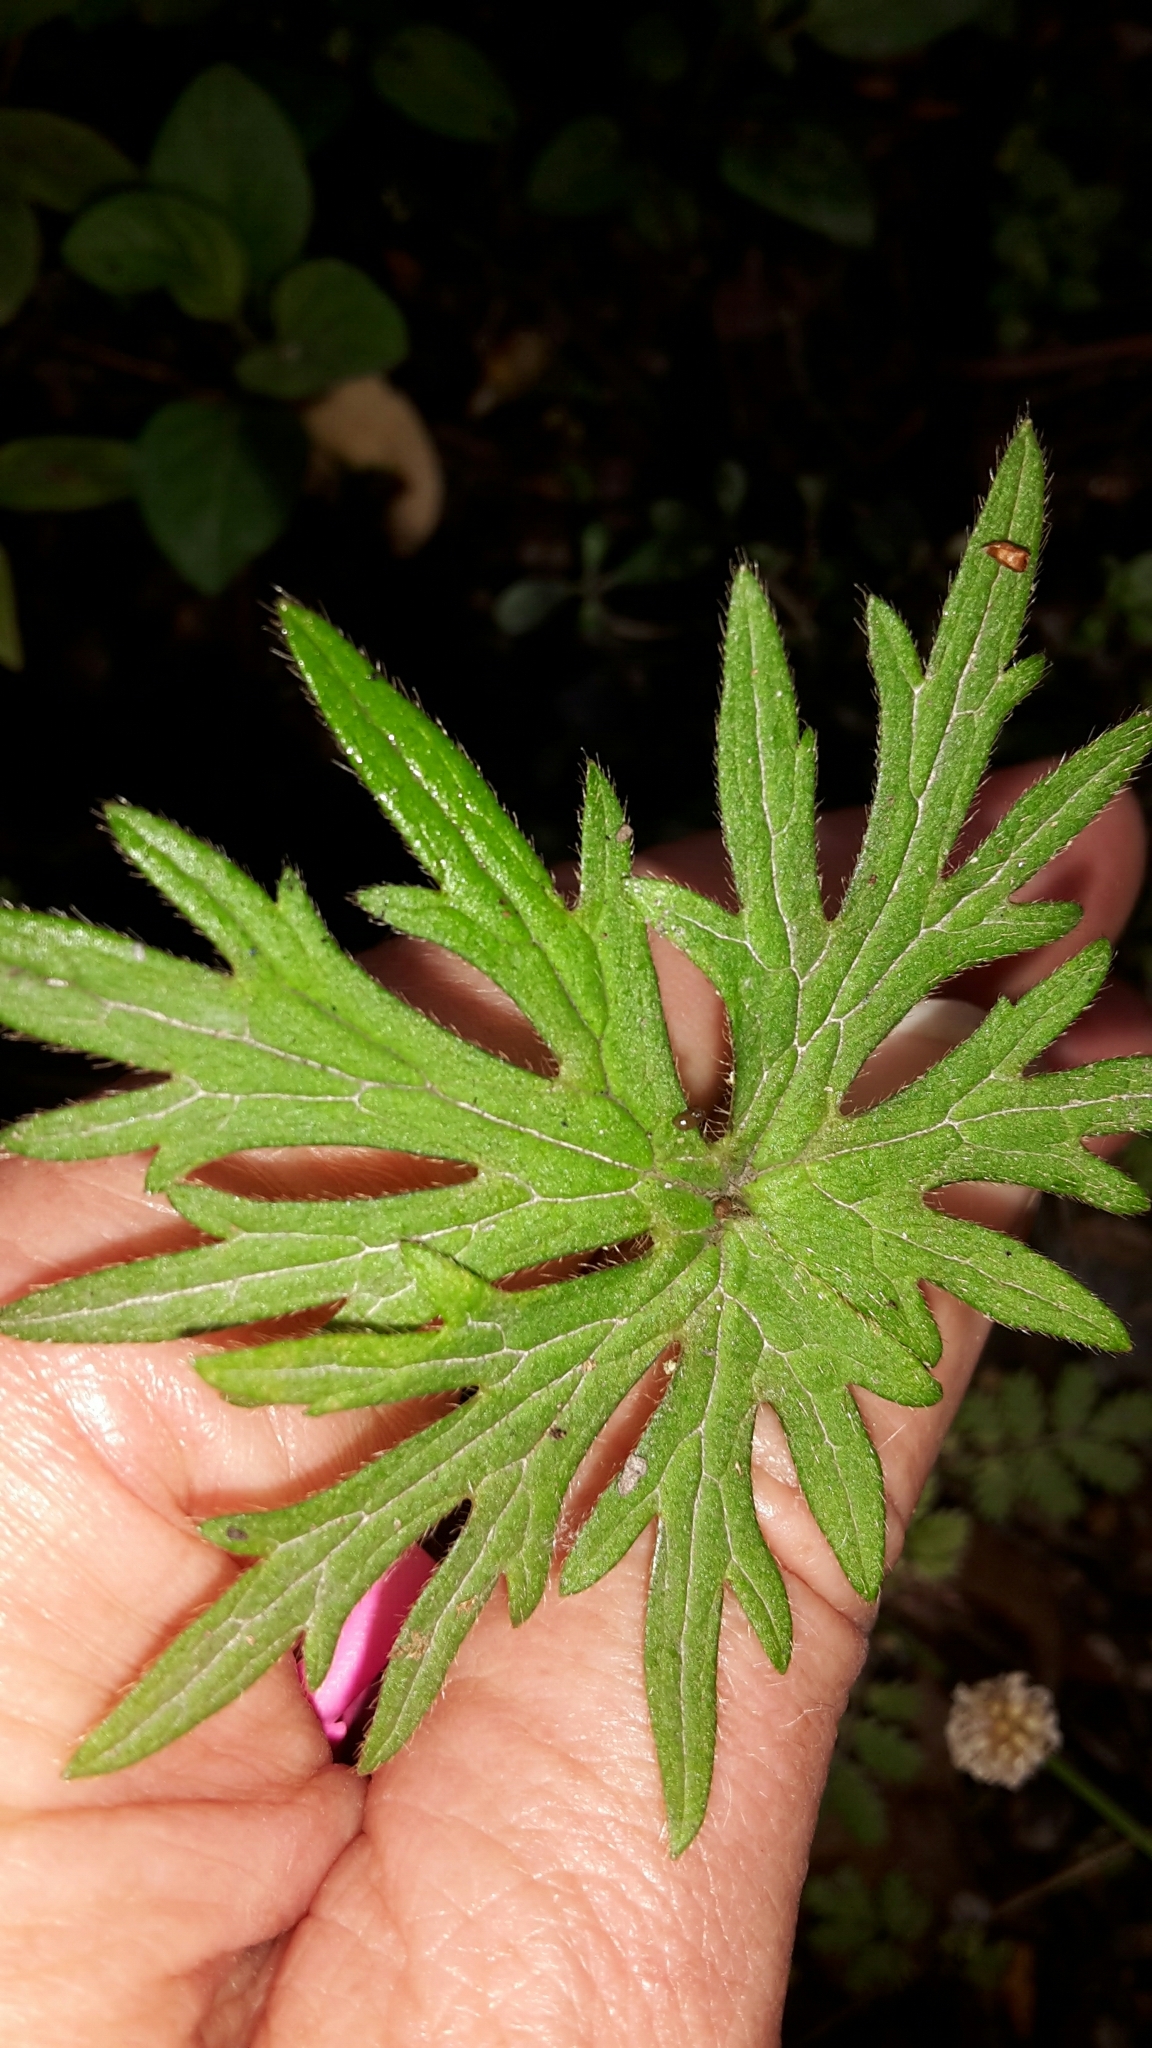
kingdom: Plantae
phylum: Tracheophyta
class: Magnoliopsida
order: Ranunculales
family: Ranunculaceae
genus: Ranunculus
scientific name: Ranunculus acris
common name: Meadow buttercup
